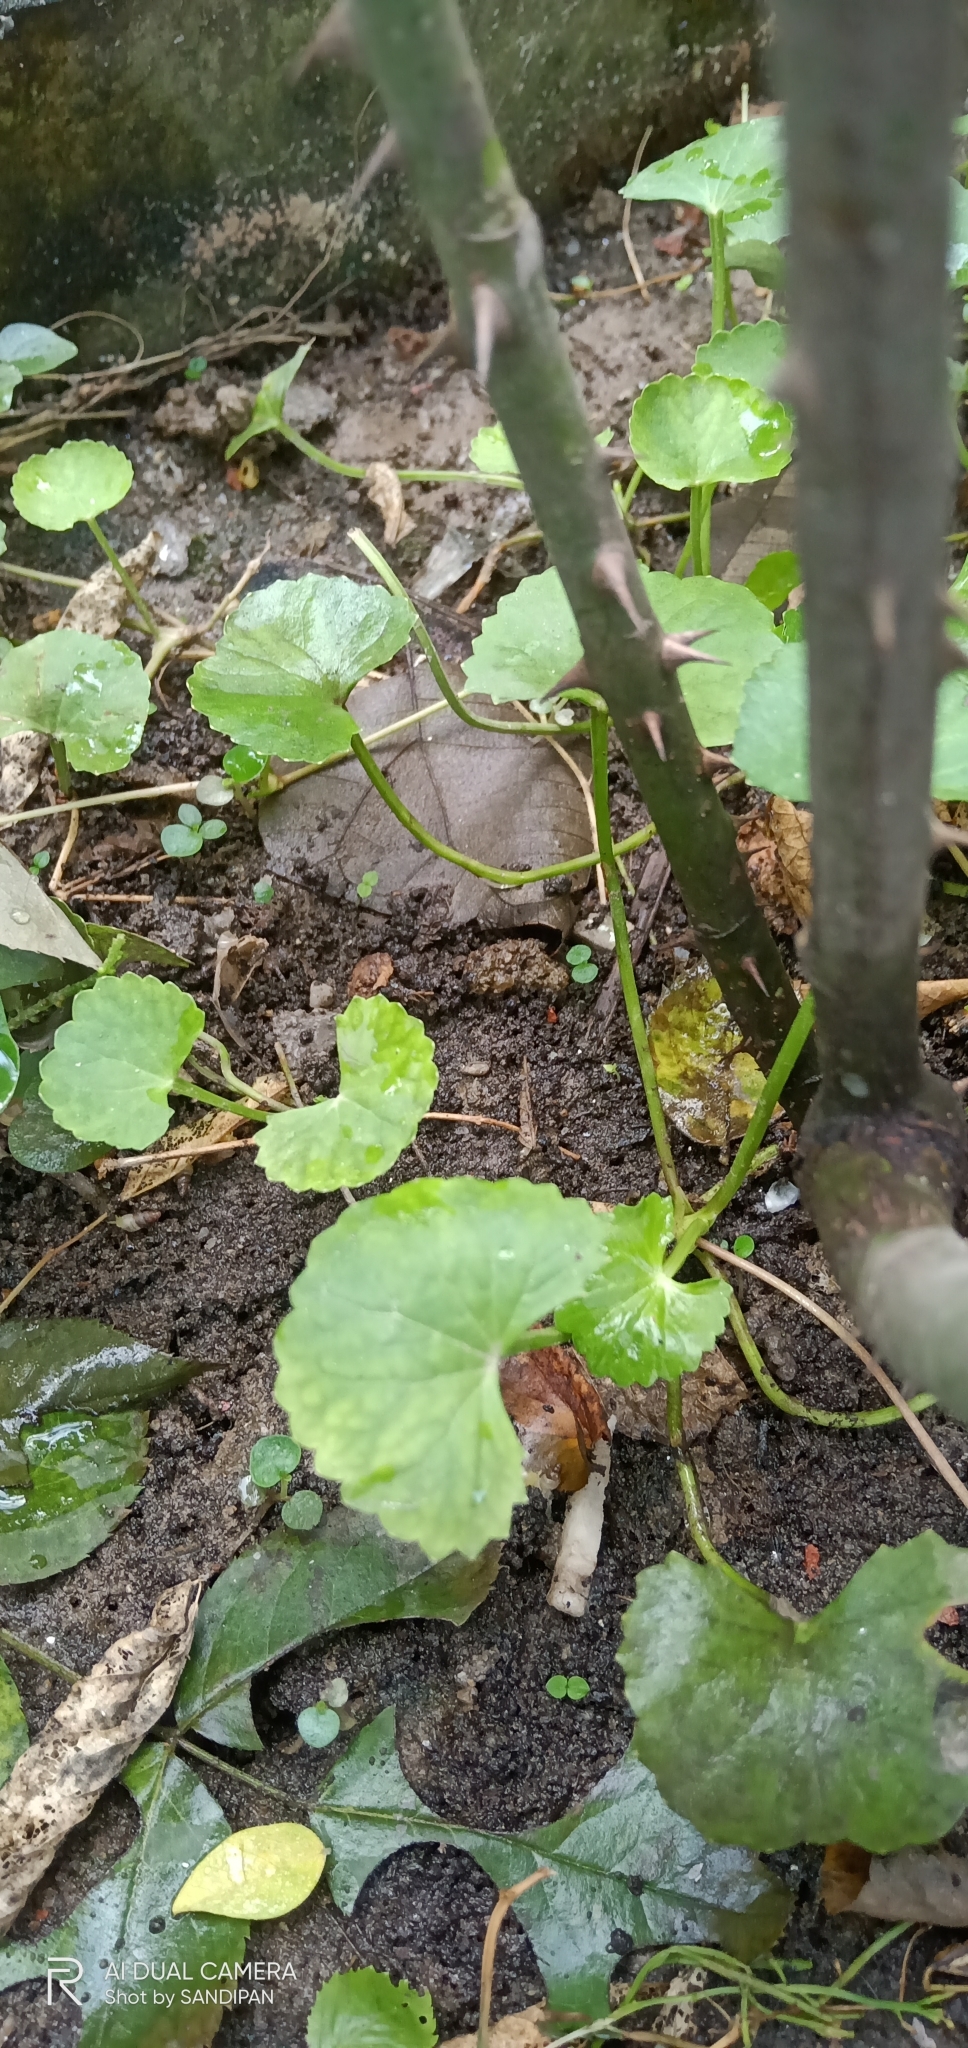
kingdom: Plantae
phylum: Tracheophyta
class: Magnoliopsida
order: Apiales
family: Apiaceae
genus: Centella
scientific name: Centella asiatica
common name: Spadeleaf
